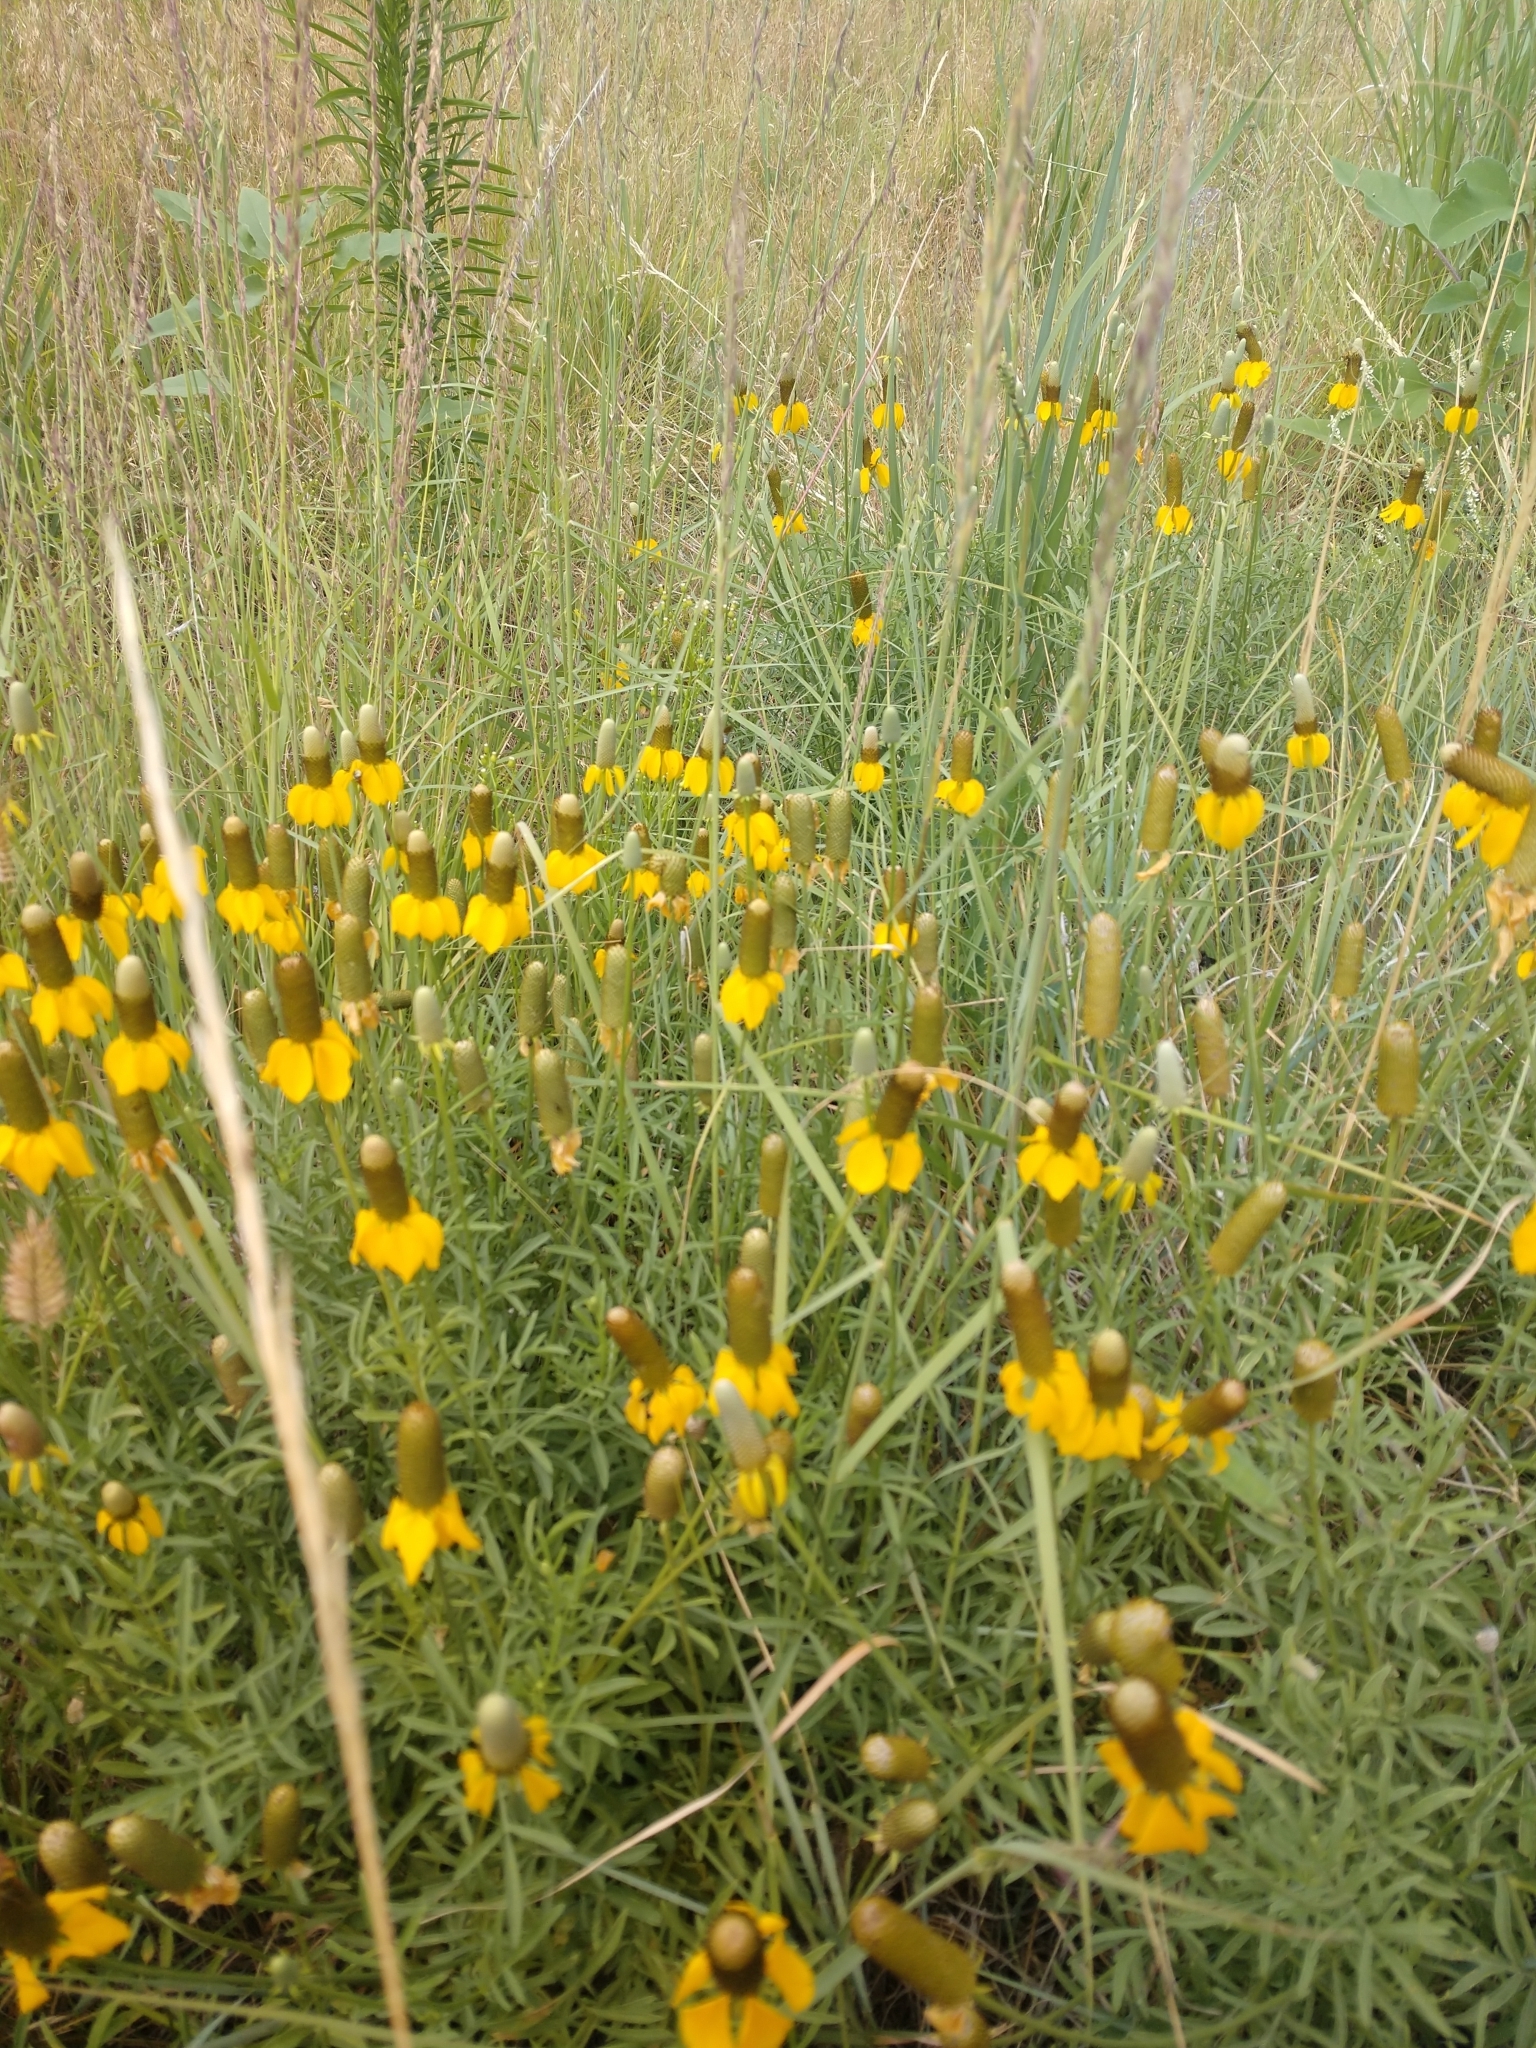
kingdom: Plantae
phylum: Tracheophyta
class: Magnoliopsida
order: Asterales
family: Asteraceae
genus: Ratibida
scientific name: Ratibida columnifera
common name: Prairie coneflower
